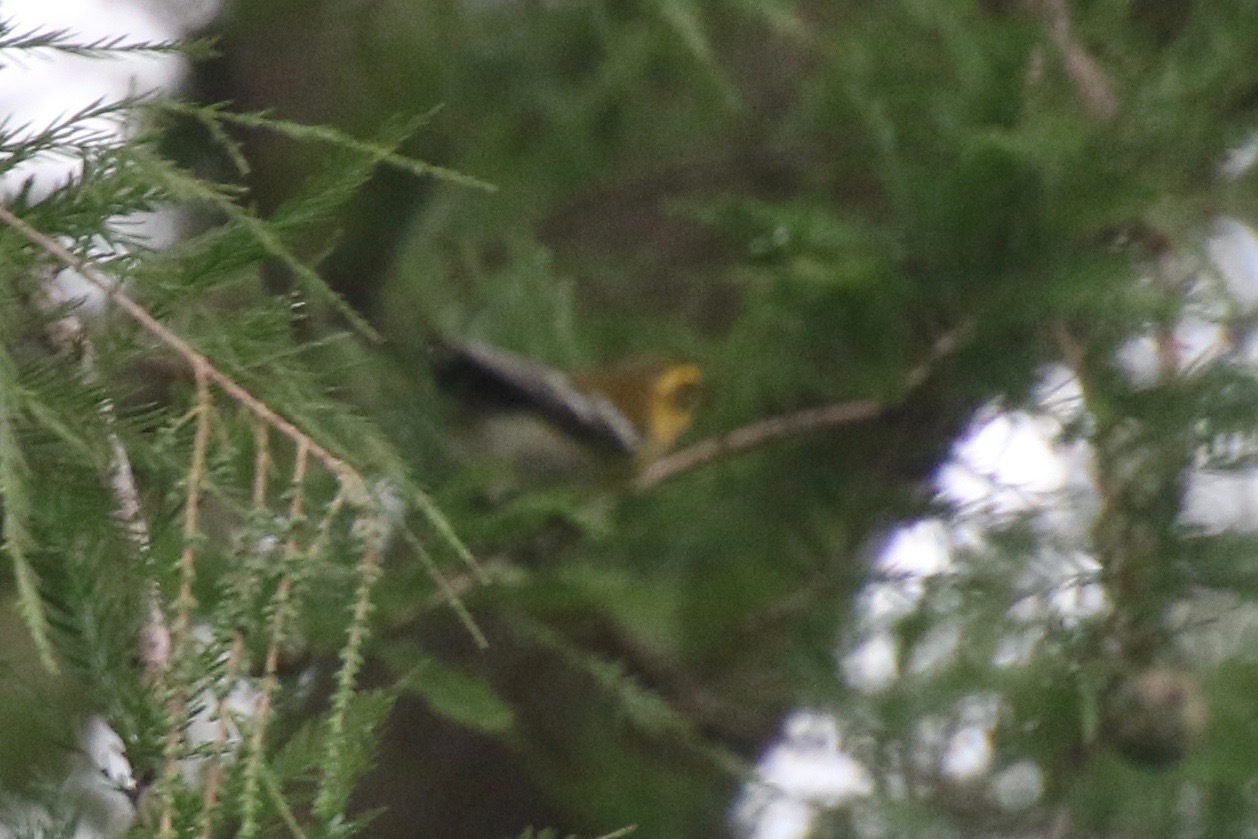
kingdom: Animalia
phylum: Chordata
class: Aves
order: Passeriformes
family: Parulidae
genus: Setophaga
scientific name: Setophaga townsendi
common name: Townsend's warbler
